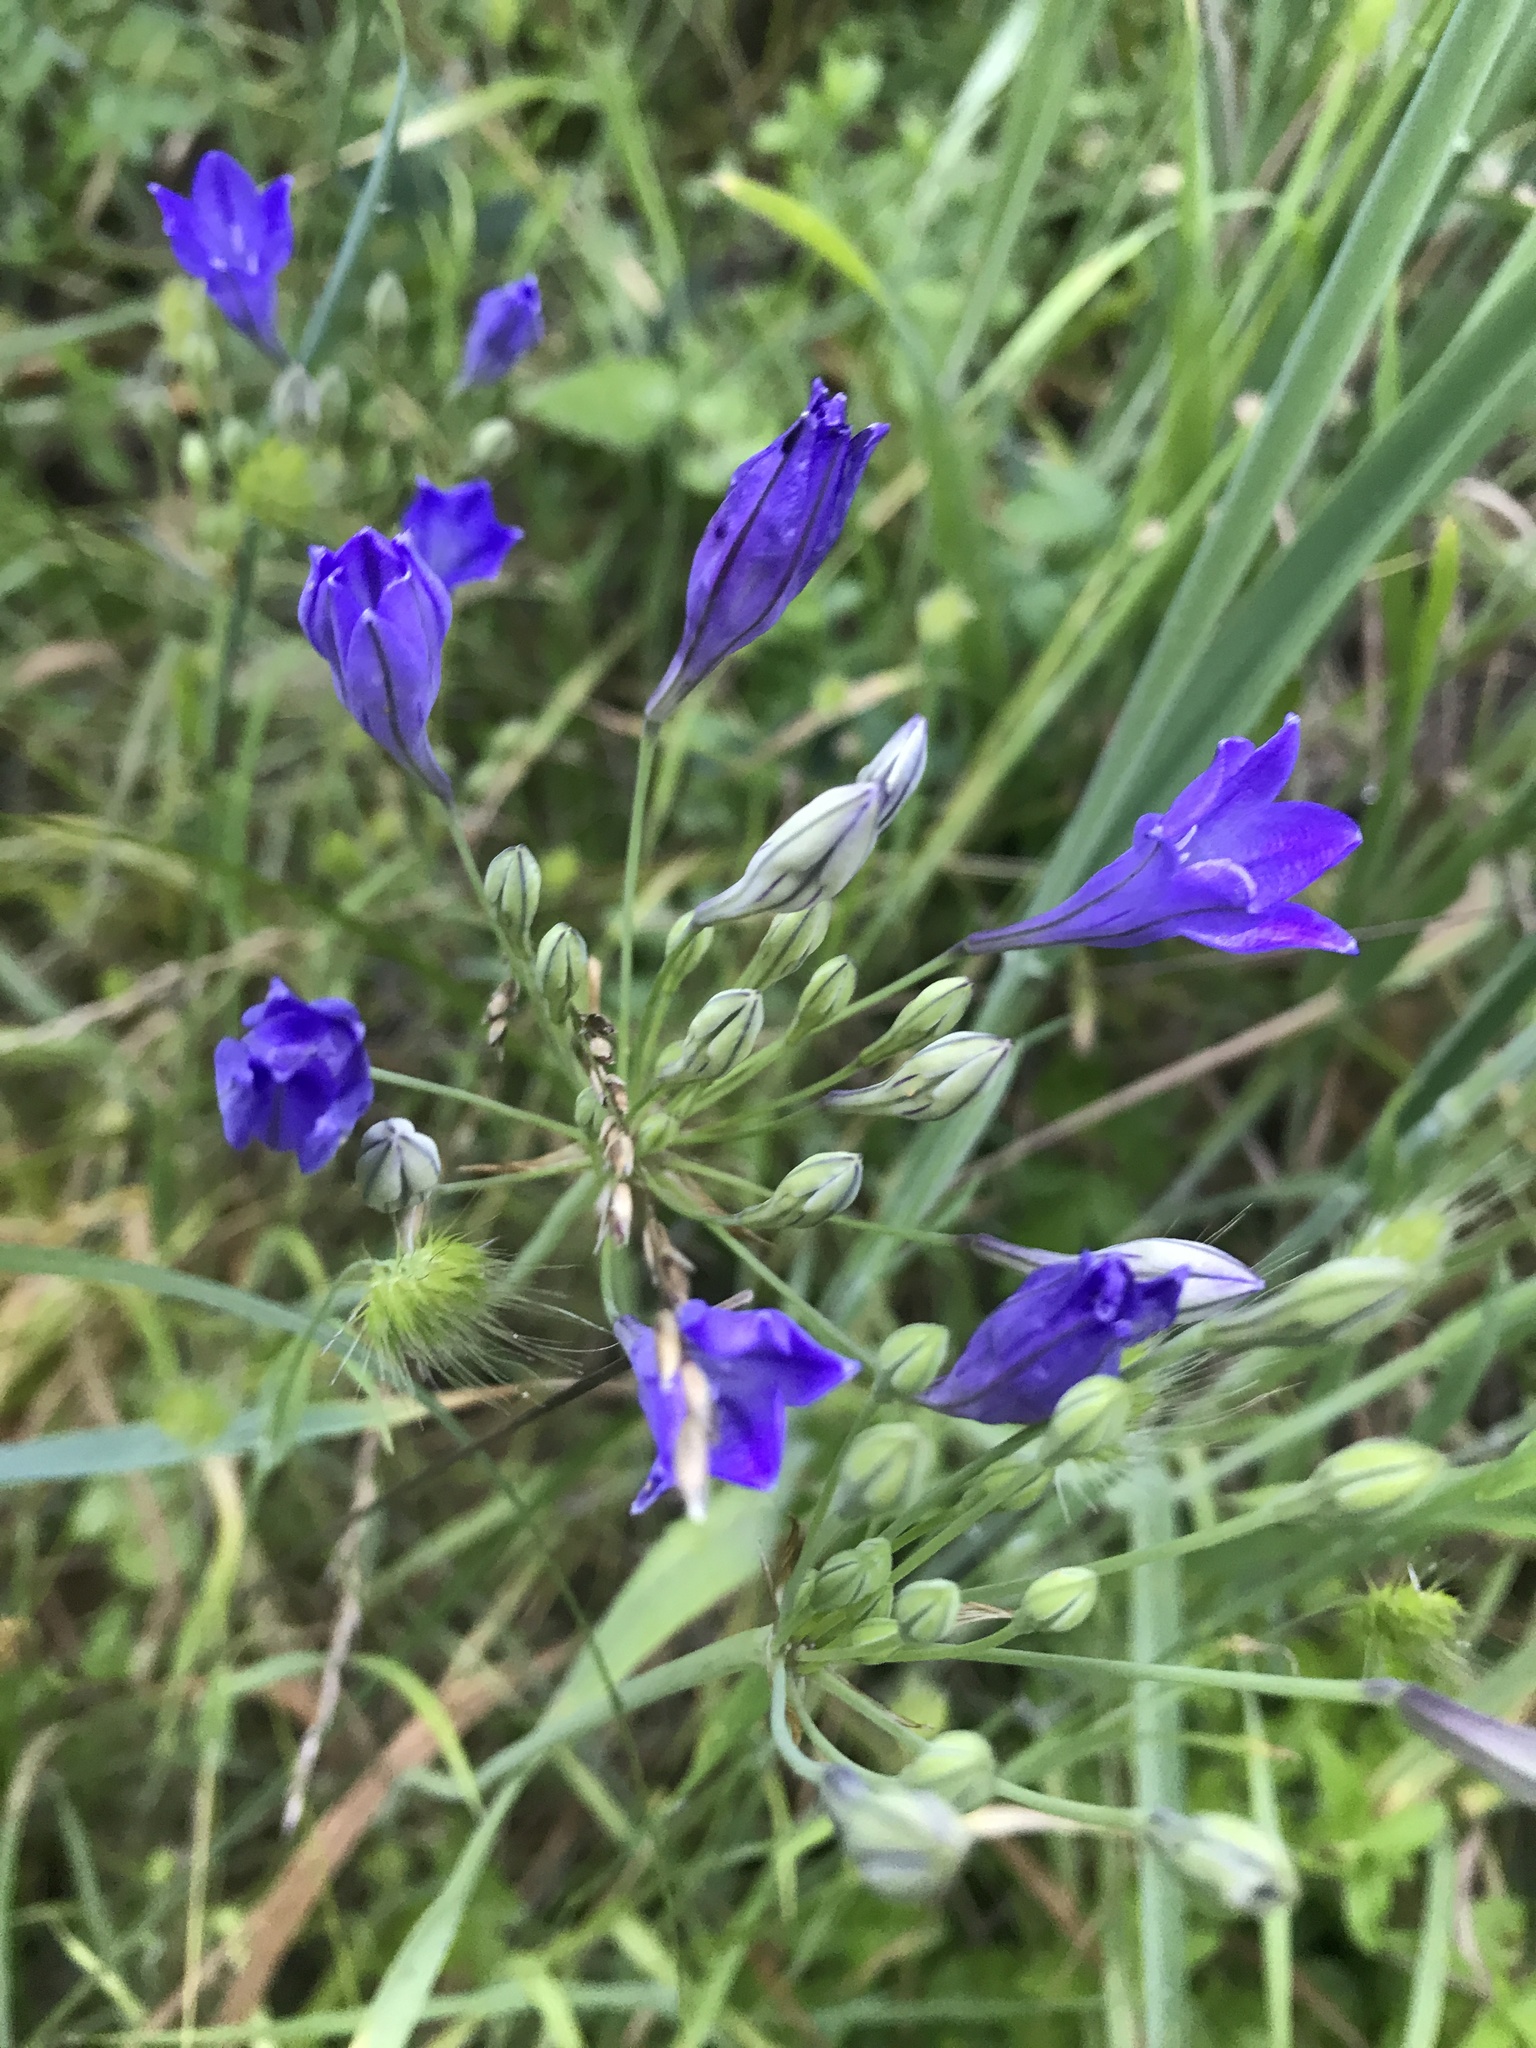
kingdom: Plantae
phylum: Tracheophyta
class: Liliopsida
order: Asparagales
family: Asparagaceae
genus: Triteleia
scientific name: Triteleia laxa
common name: Triplet-lily
